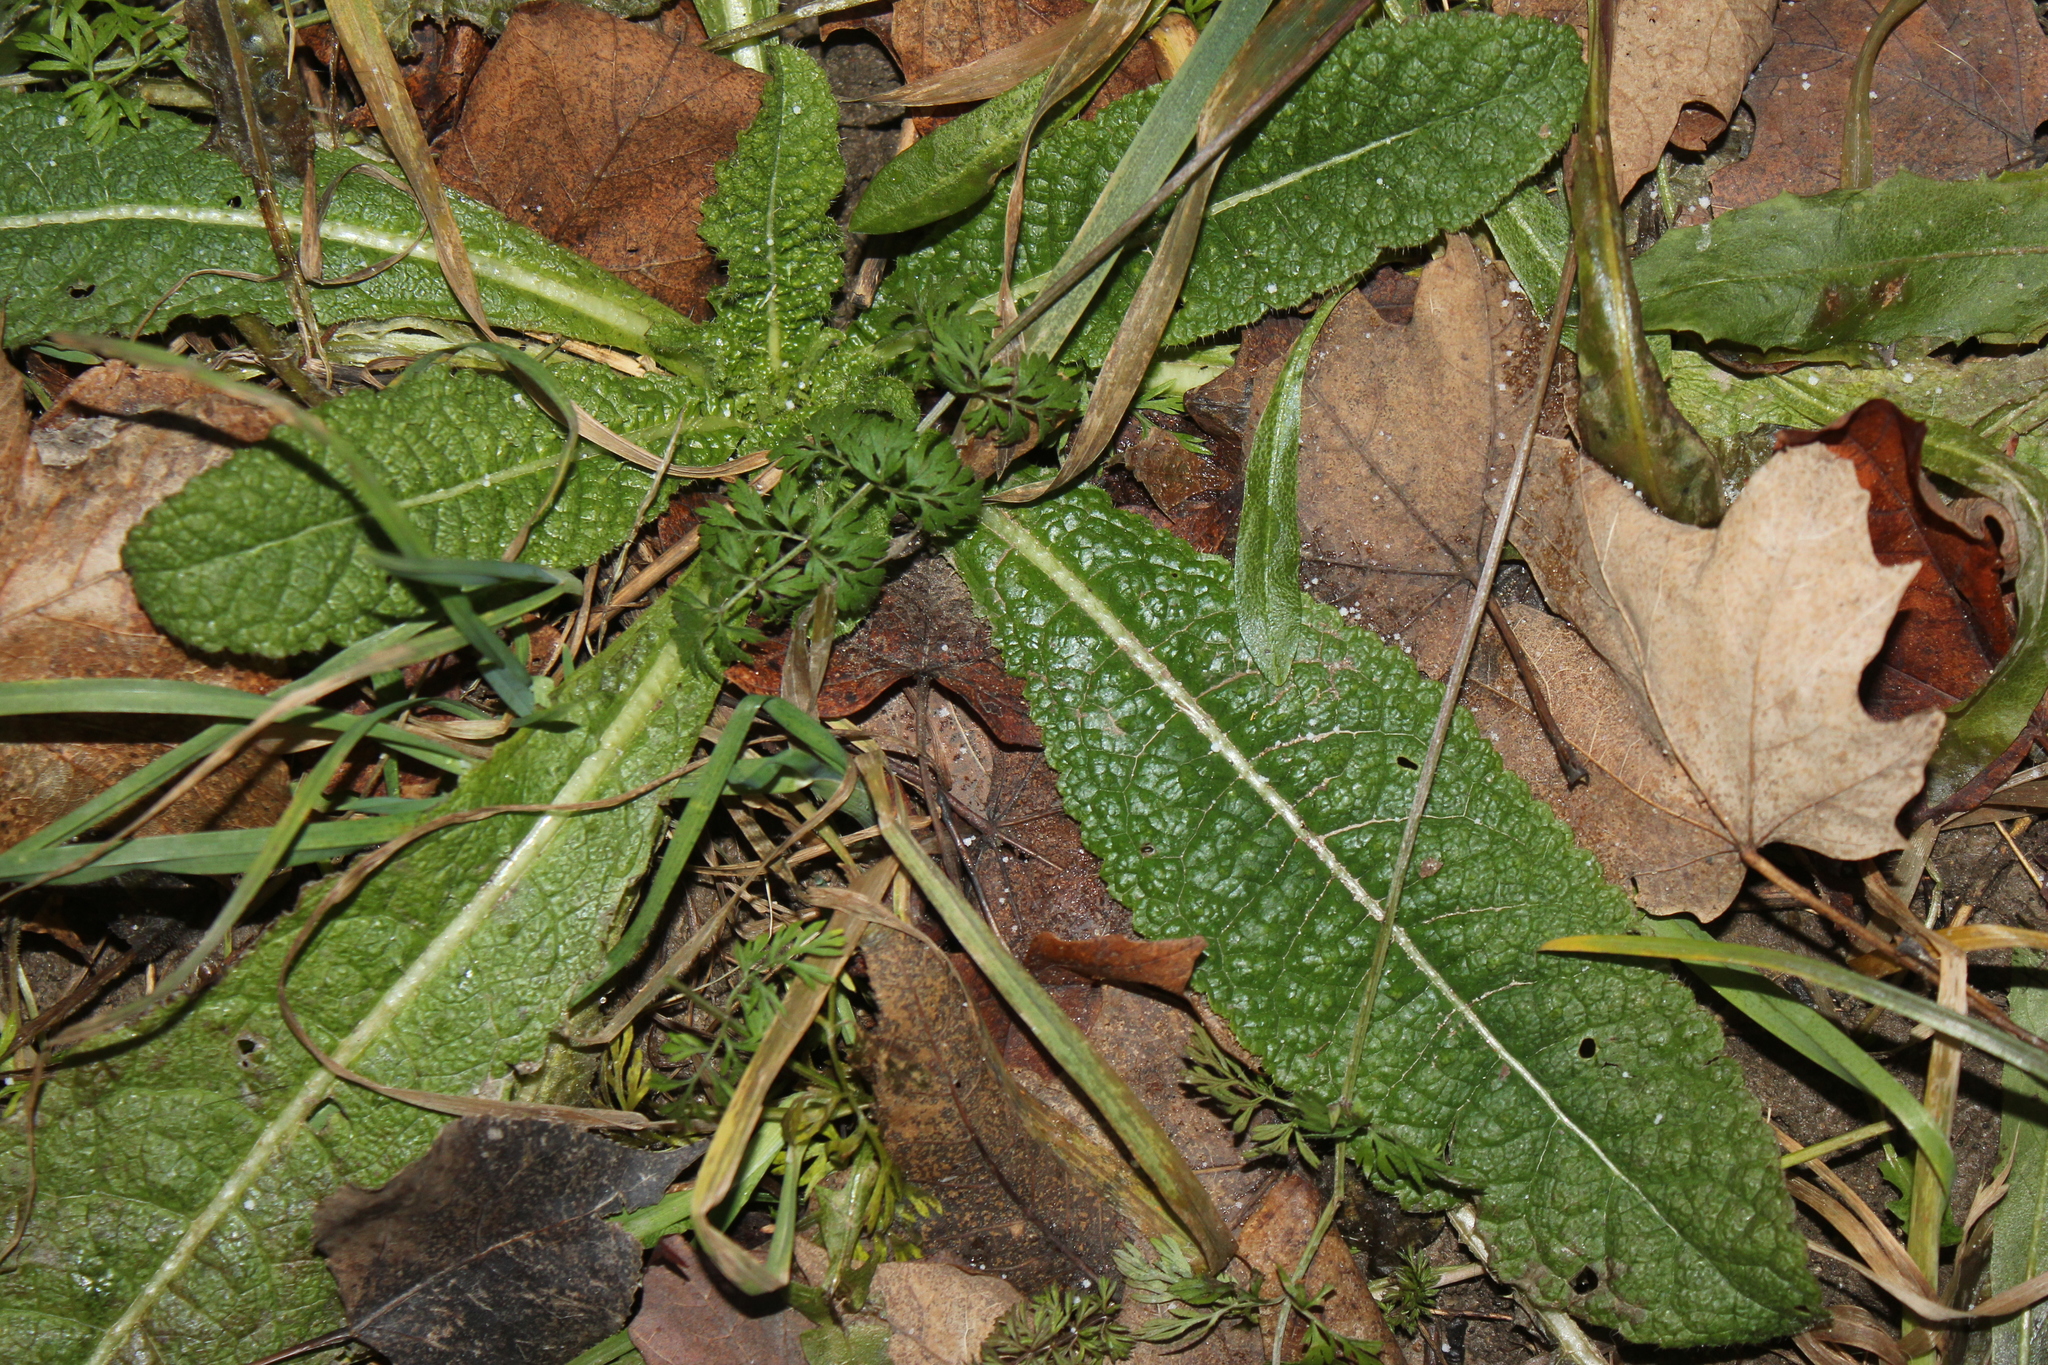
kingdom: Plantae
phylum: Tracheophyta
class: Magnoliopsida
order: Dipsacales
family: Caprifoliaceae
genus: Dipsacus
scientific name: Dipsacus fullonum
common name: Teasel
